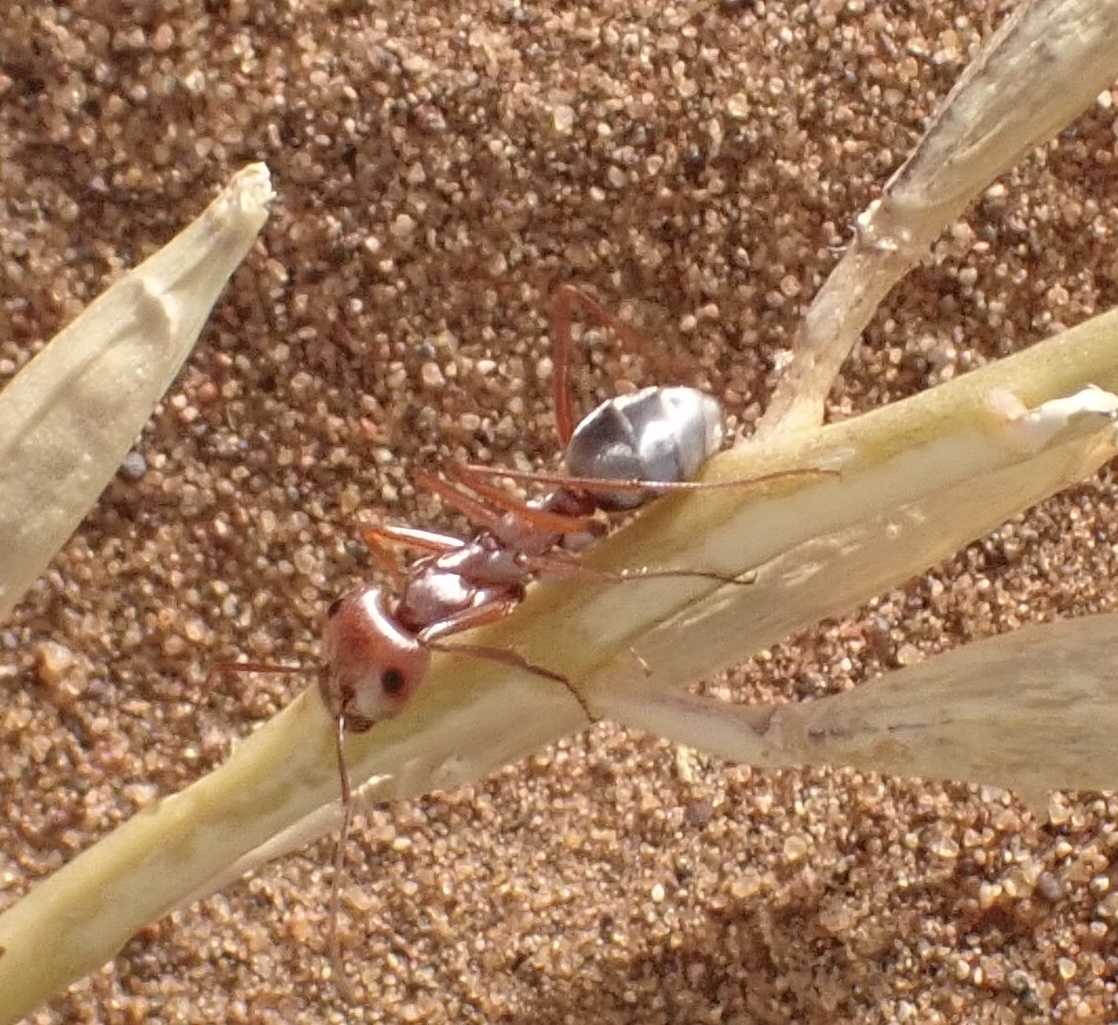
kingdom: Animalia
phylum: Arthropoda
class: Insecta
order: Hymenoptera
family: Formicidae
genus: Cataglyphis
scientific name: Cataglyphis bombycinus
